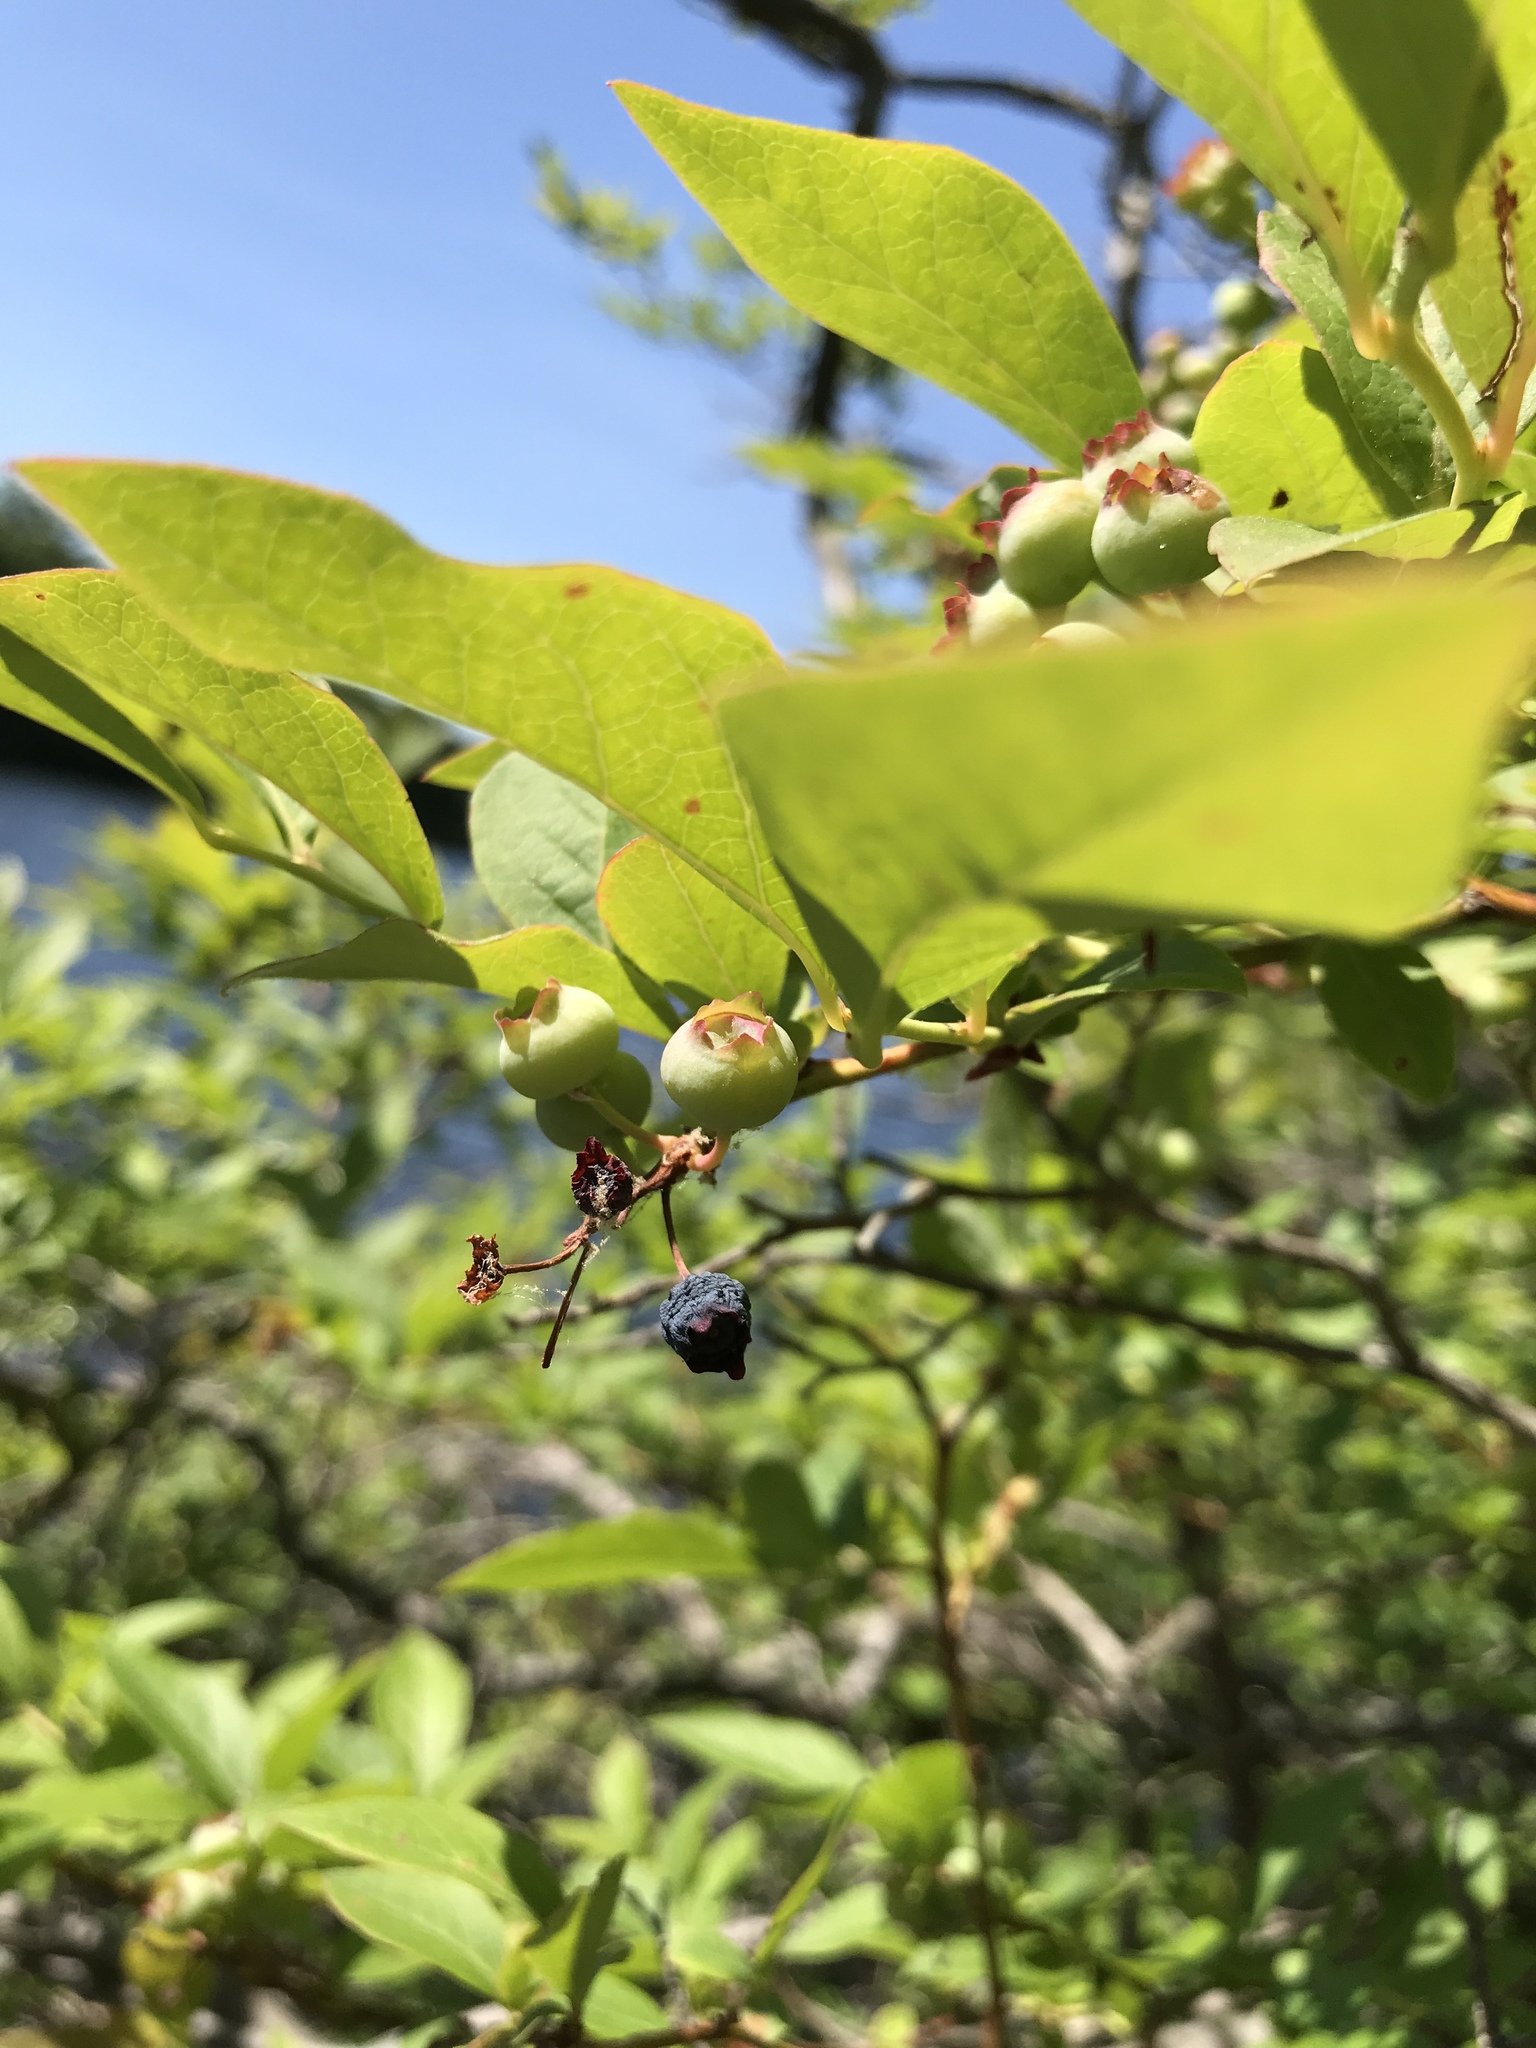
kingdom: Plantae
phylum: Tracheophyta
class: Magnoliopsida
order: Ericales
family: Ericaceae
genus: Vaccinium
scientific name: Vaccinium corymbosum
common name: Blueberry
